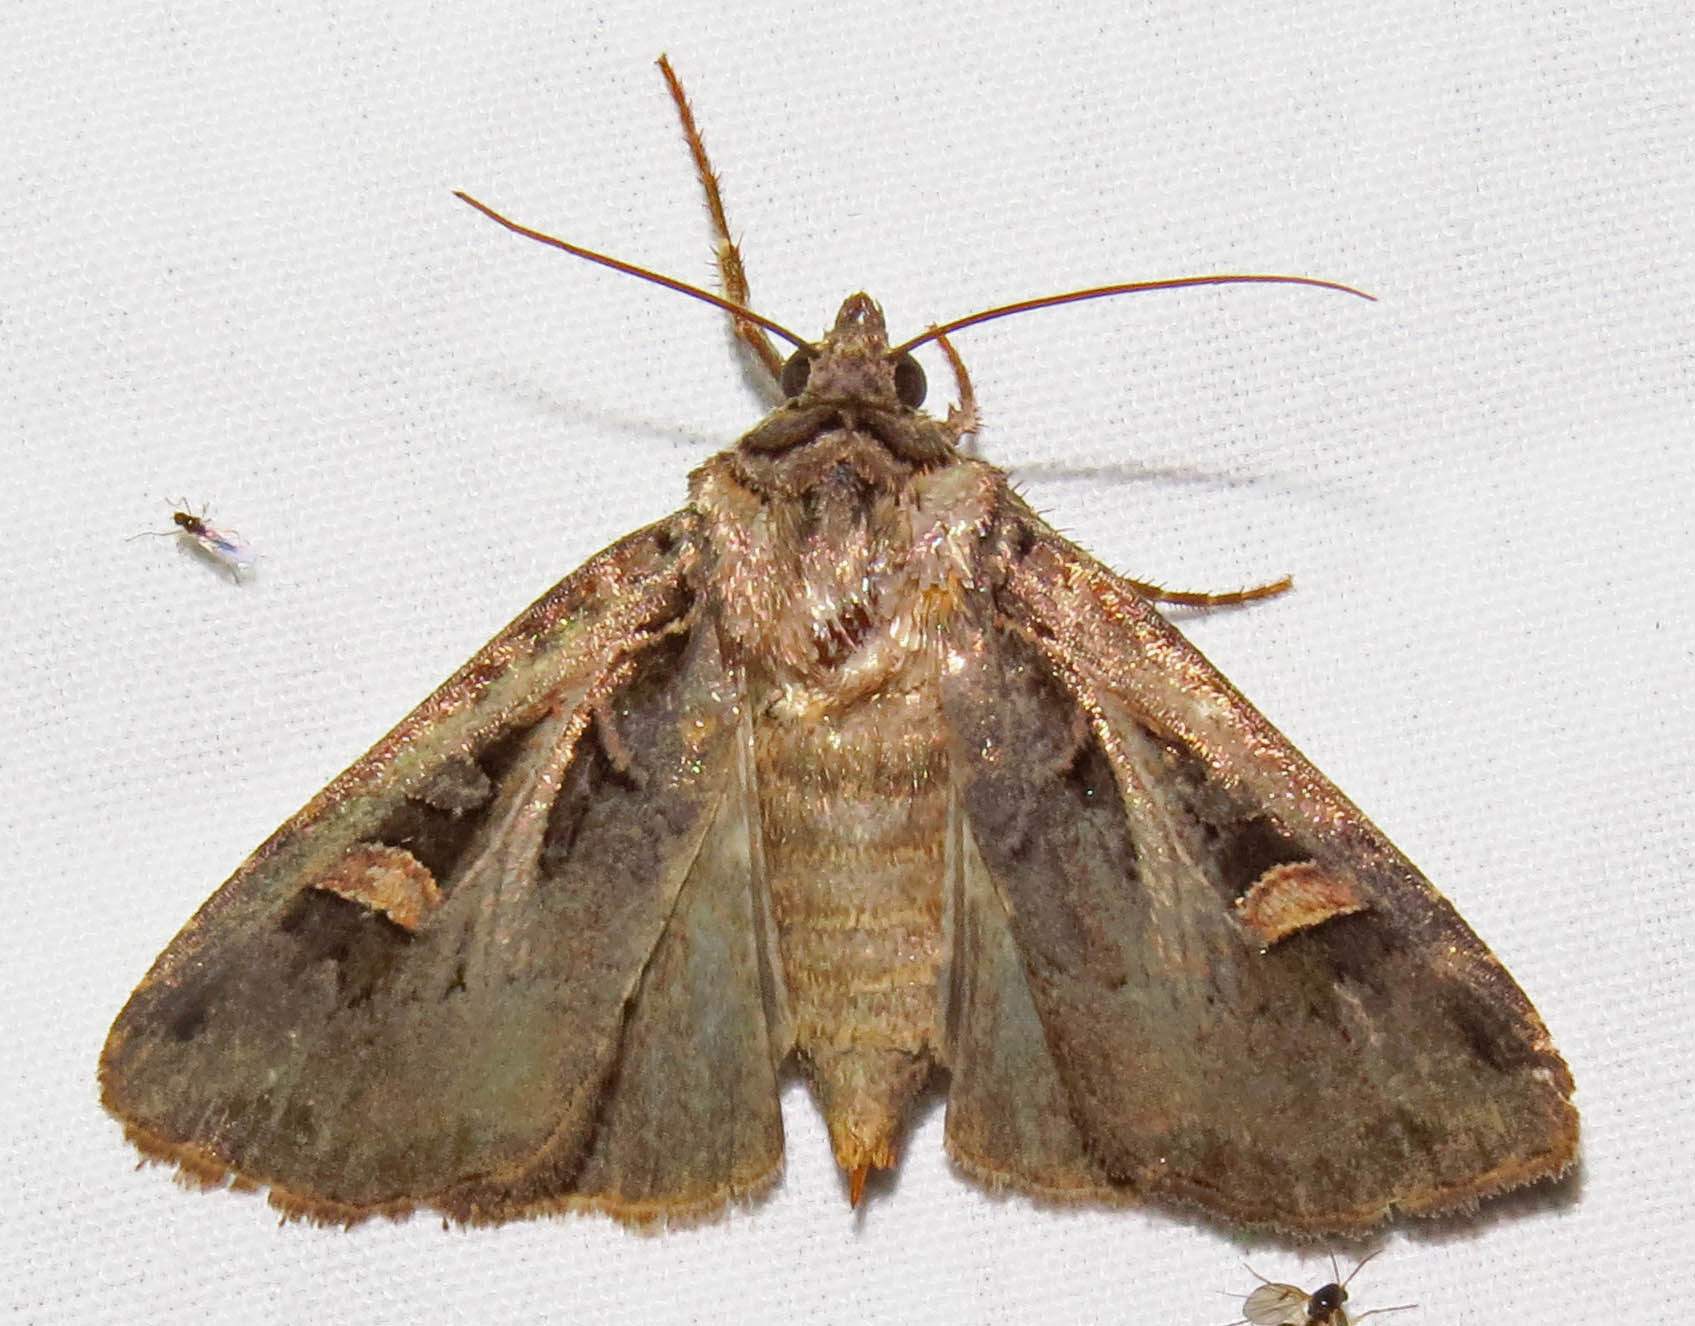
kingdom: Animalia
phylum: Arthropoda
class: Insecta
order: Lepidoptera
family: Noctuidae
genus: Feltia
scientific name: Feltia herilis
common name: Master's dart
